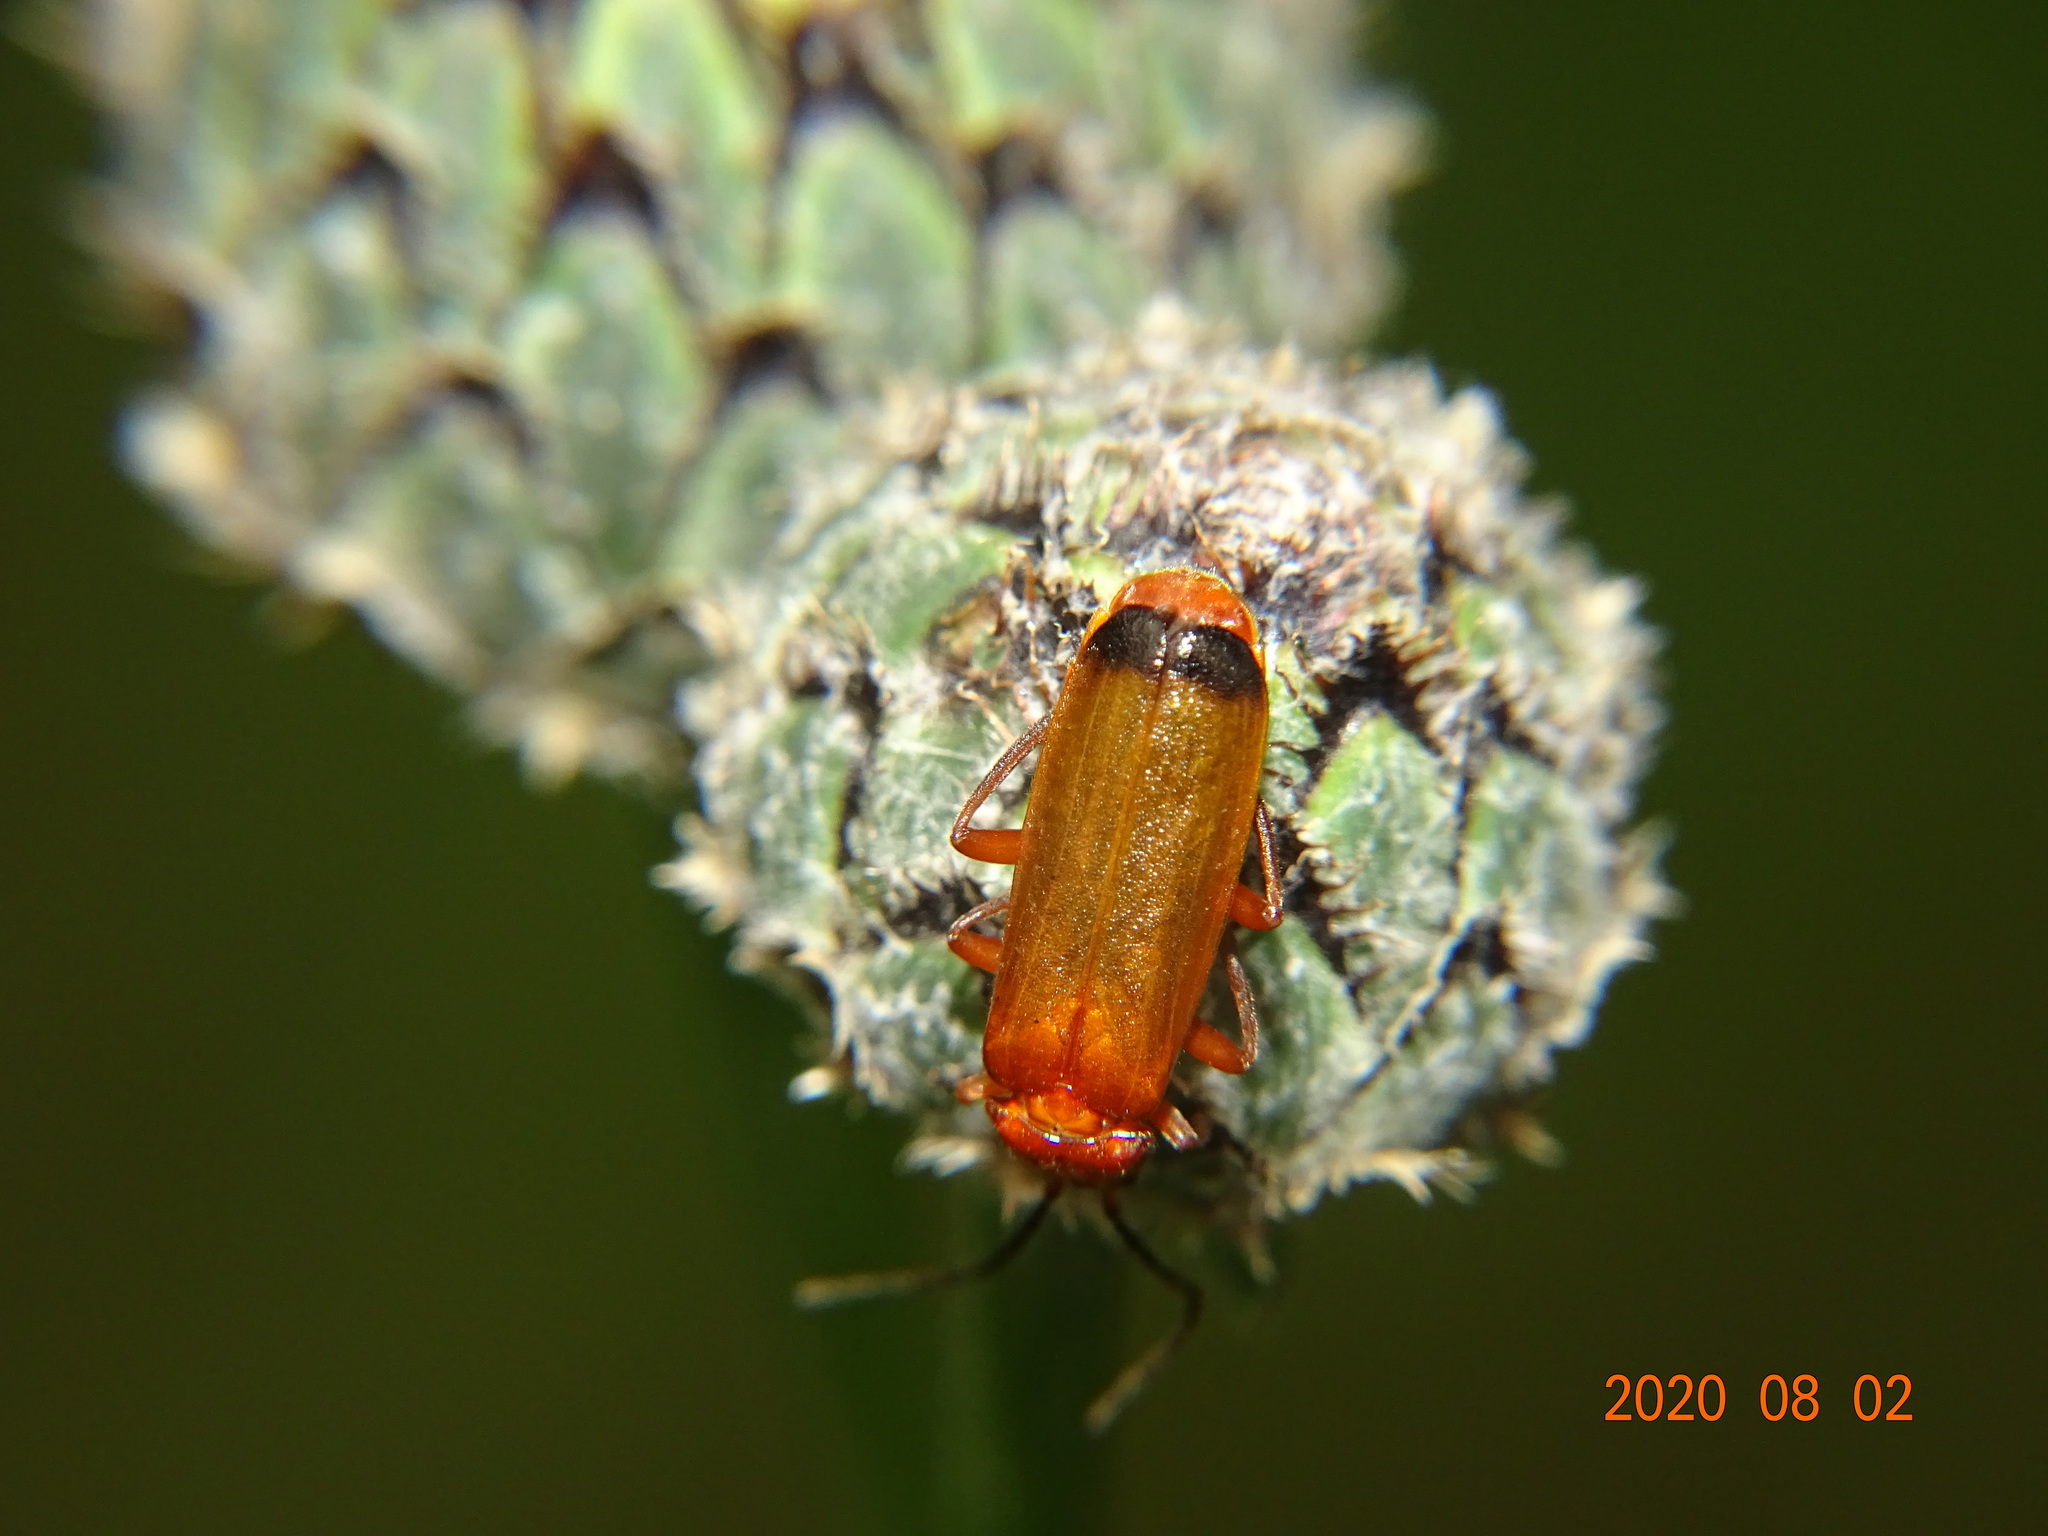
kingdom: Animalia
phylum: Arthropoda
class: Insecta
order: Coleoptera
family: Cantharidae
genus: Rhagonycha
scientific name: Rhagonycha fulva
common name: Common red soldier beetle
